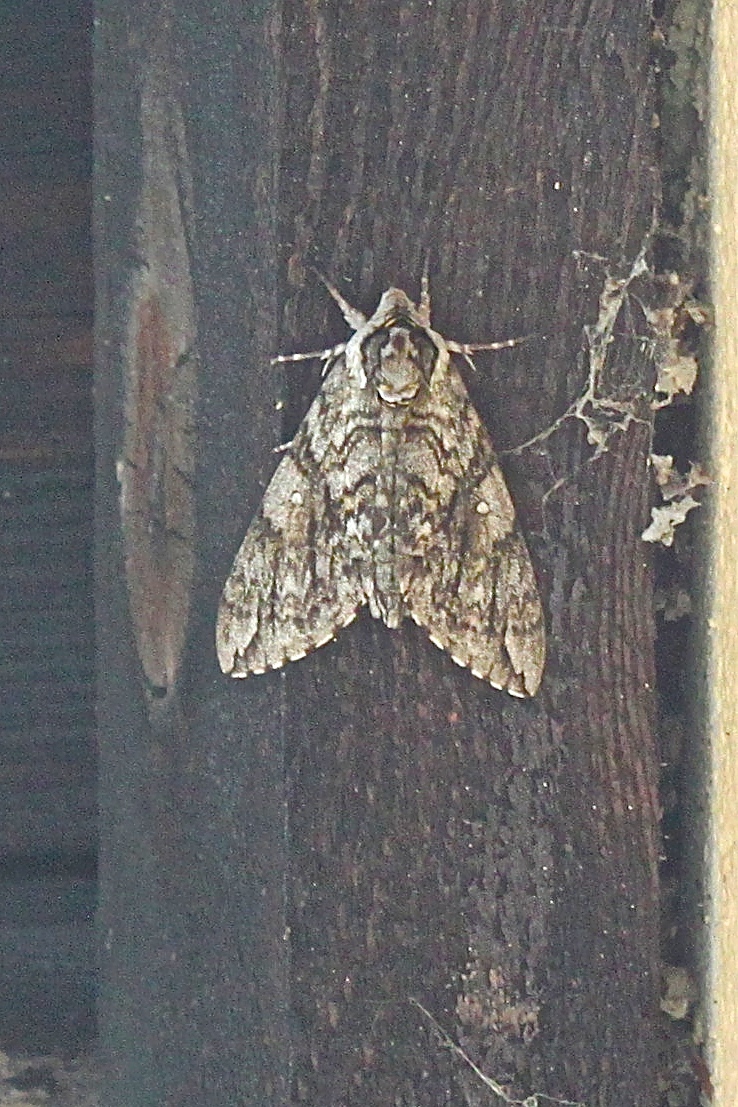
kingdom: Animalia
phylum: Arthropoda
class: Insecta
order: Lepidoptera
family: Sphingidae
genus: Ceratomia
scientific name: Ceratomia undulosa
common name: Waved sphinx
